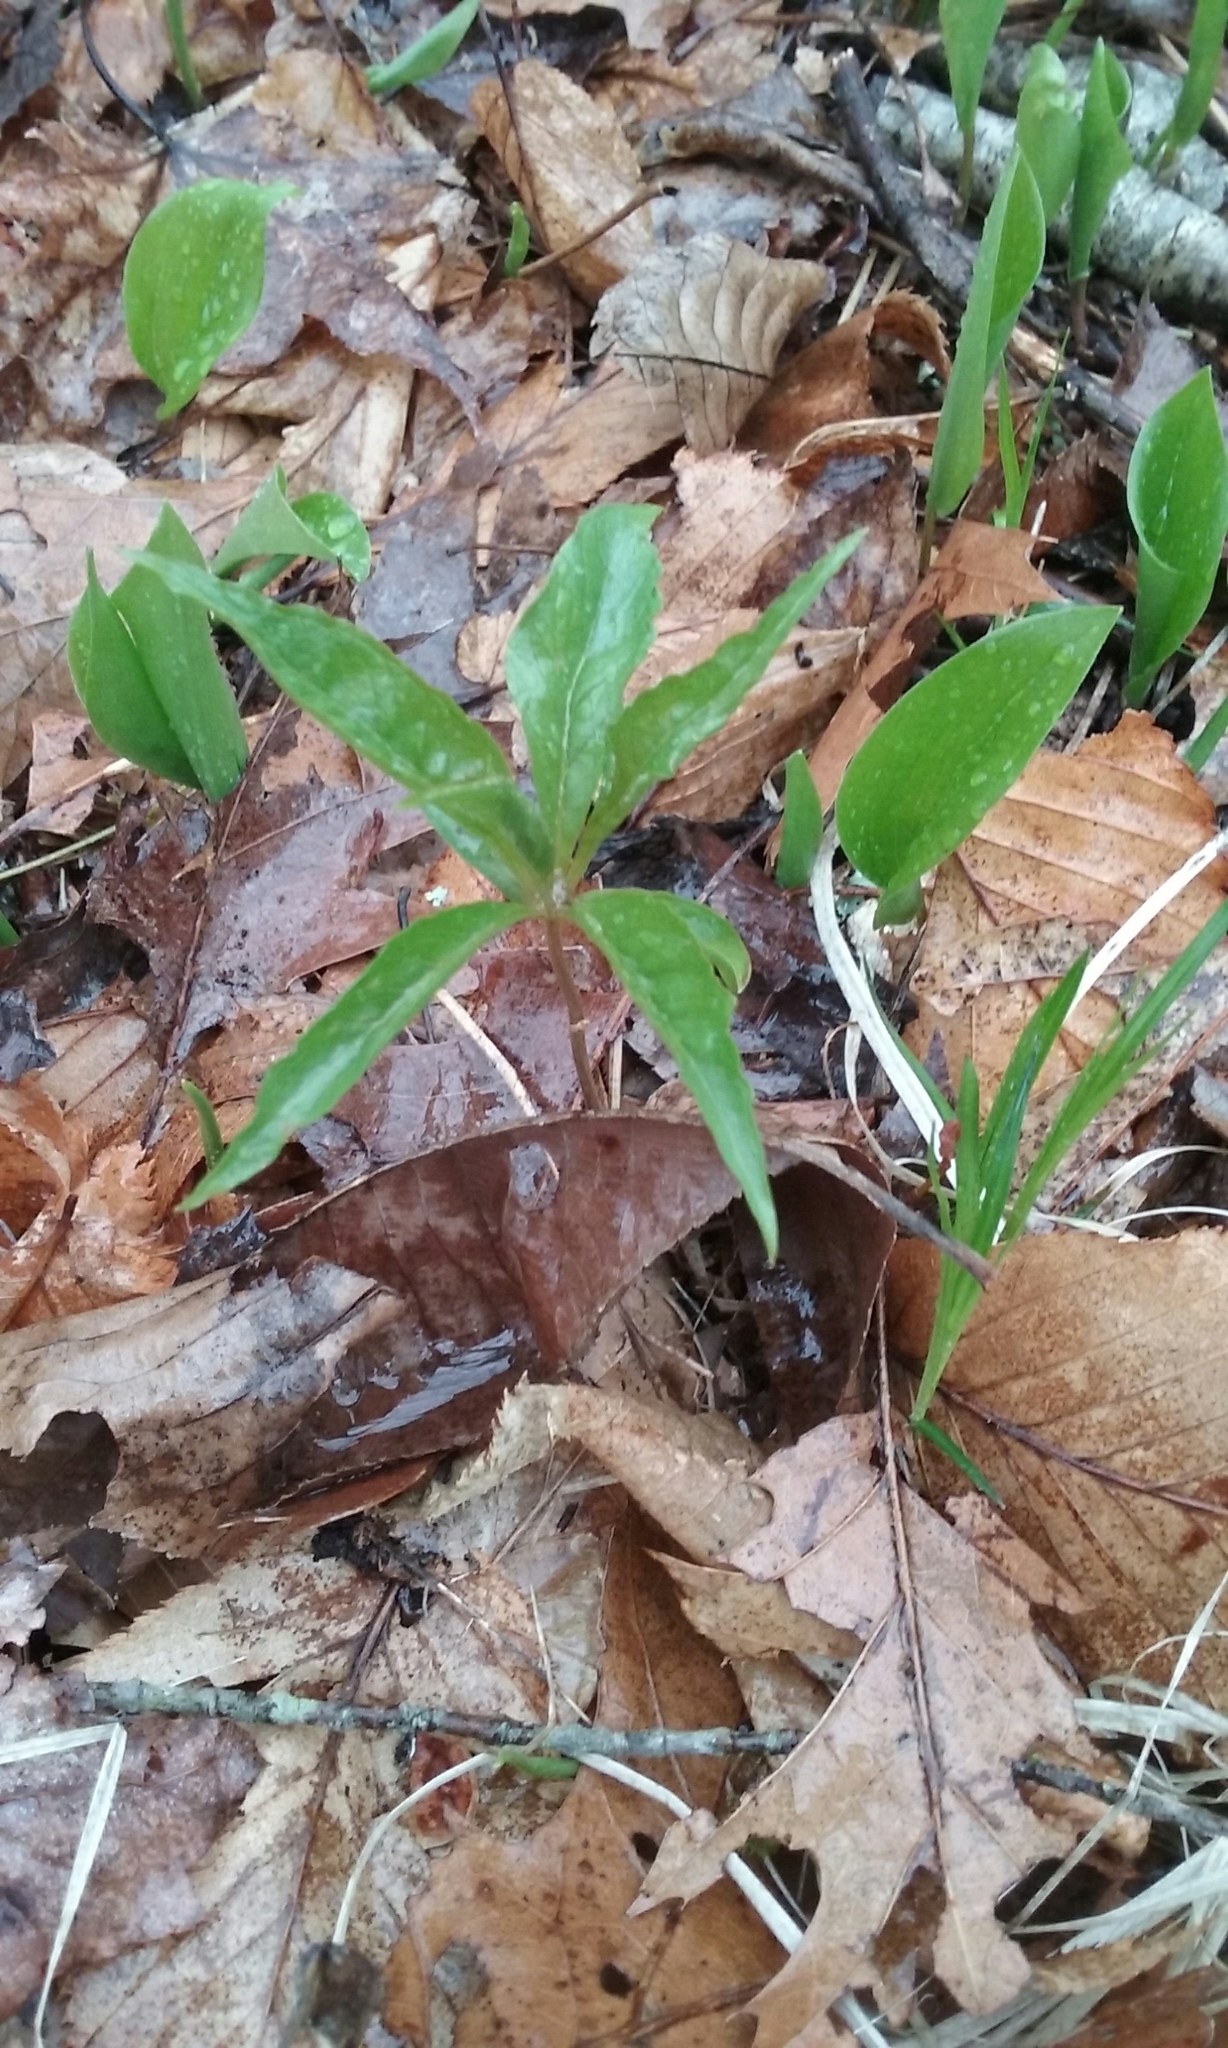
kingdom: Plantae
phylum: Tracheophyta
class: Magnoliopsida
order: Ericales
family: Primulaceae
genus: Lysimachia
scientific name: Lysimachia borealis
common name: American starflower
